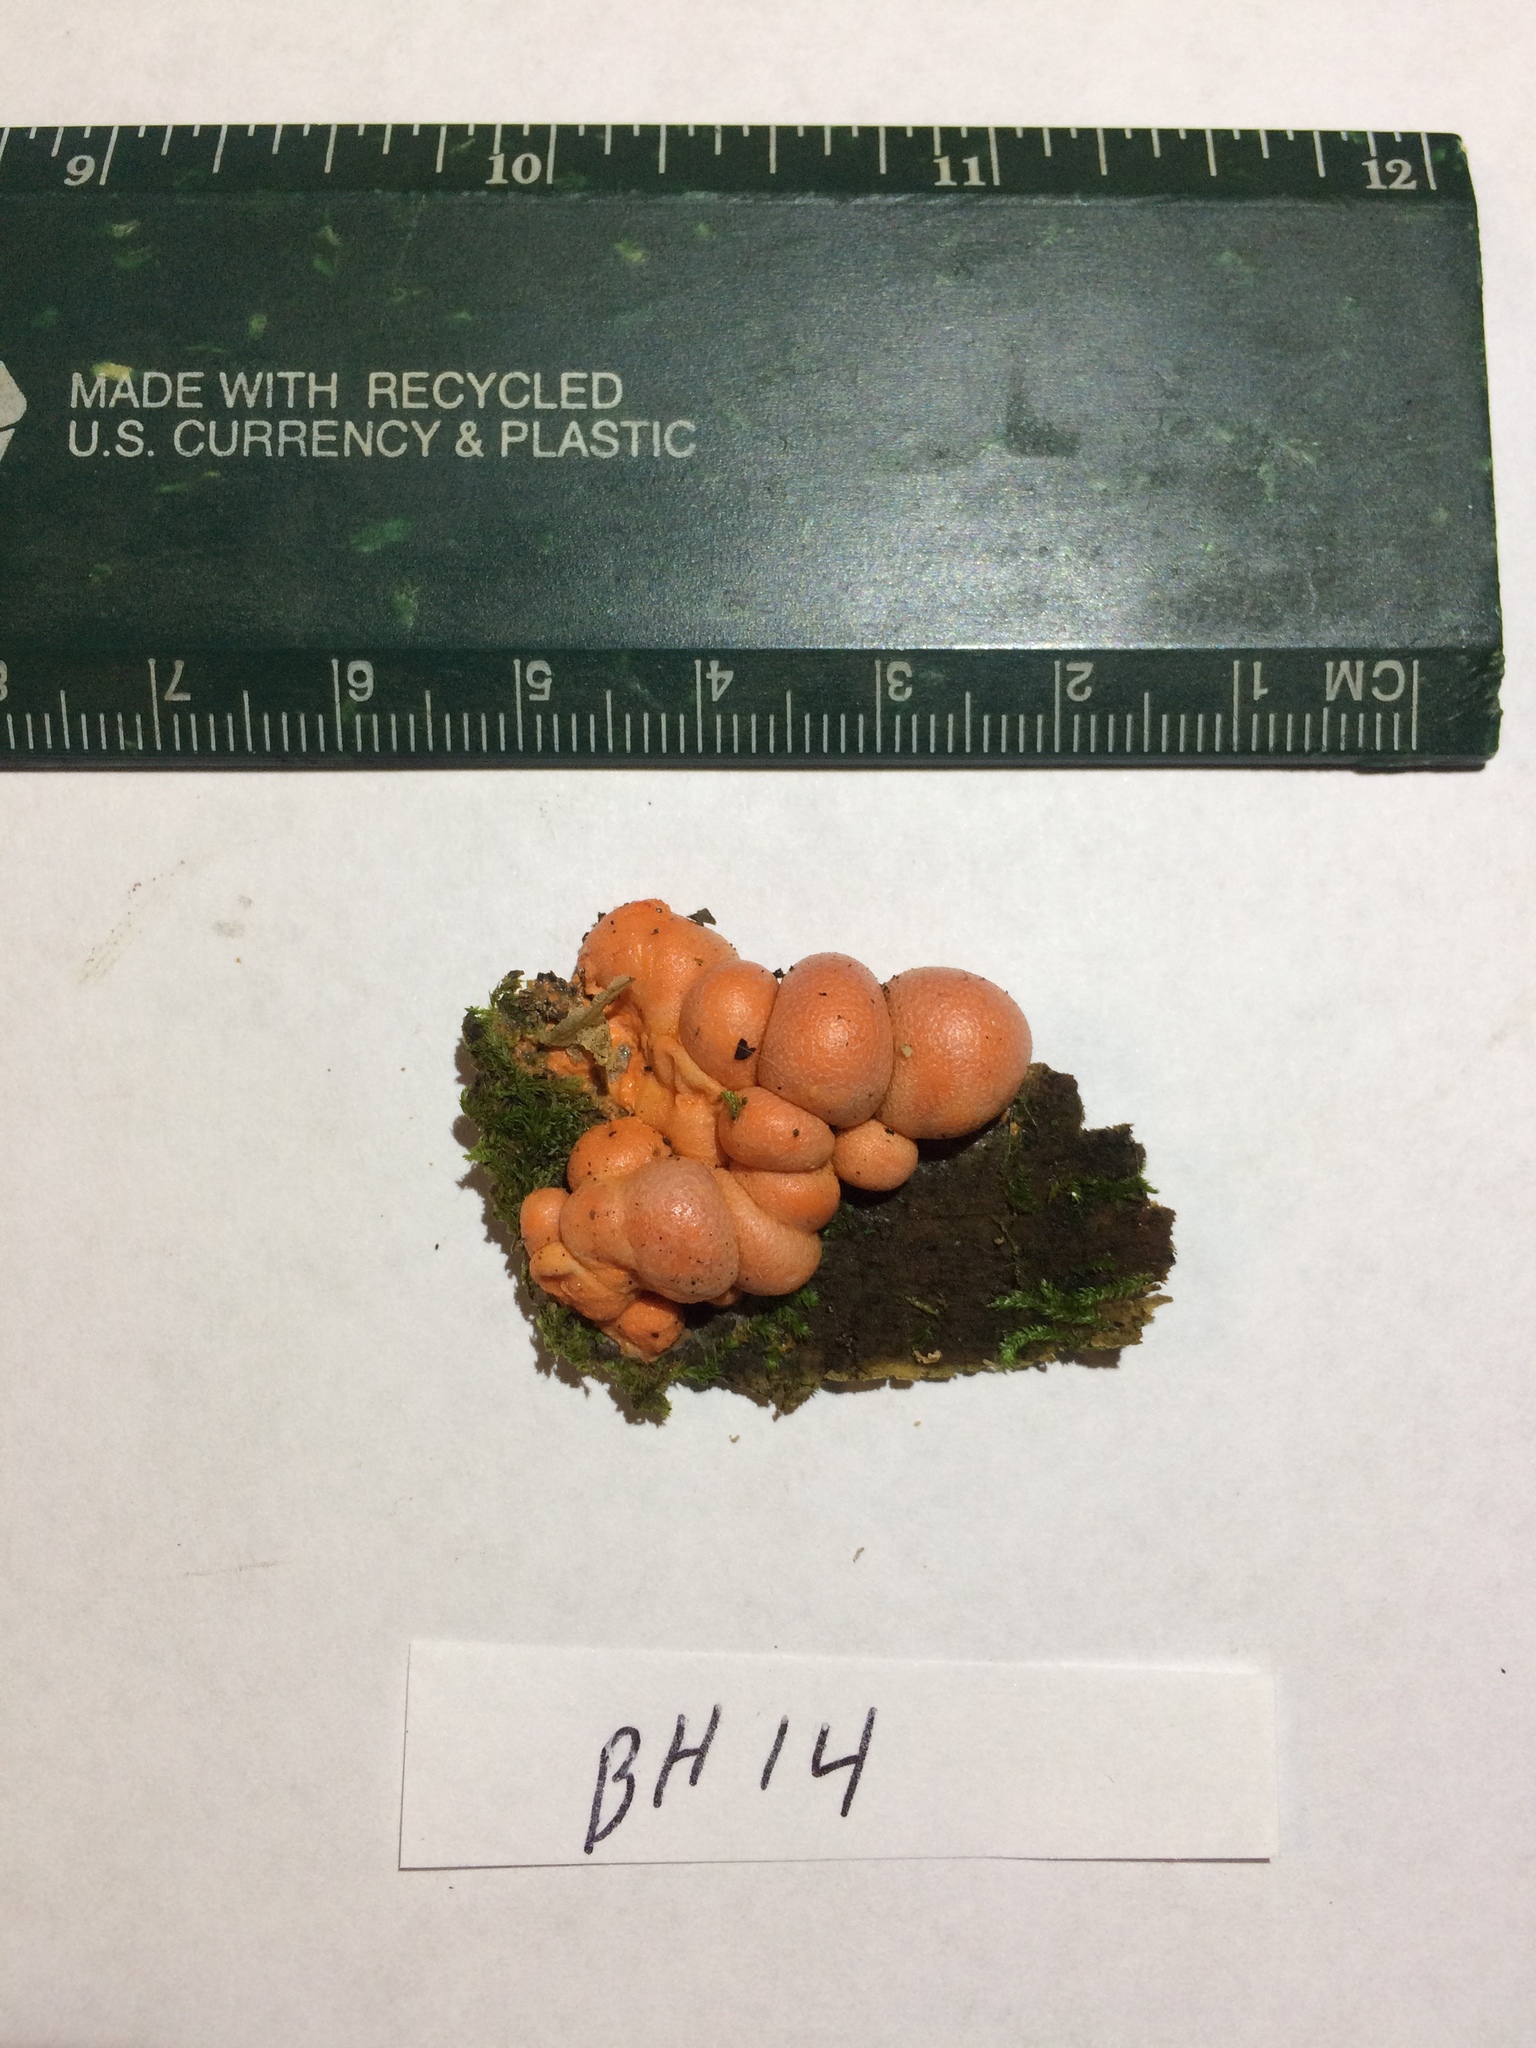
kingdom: Protozoa
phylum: Mycetozoa
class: Myxomycetes
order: Cribrariales
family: Tubiferaceae
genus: Lycogala
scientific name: Lycogala epidendrum
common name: Wolf's milk
